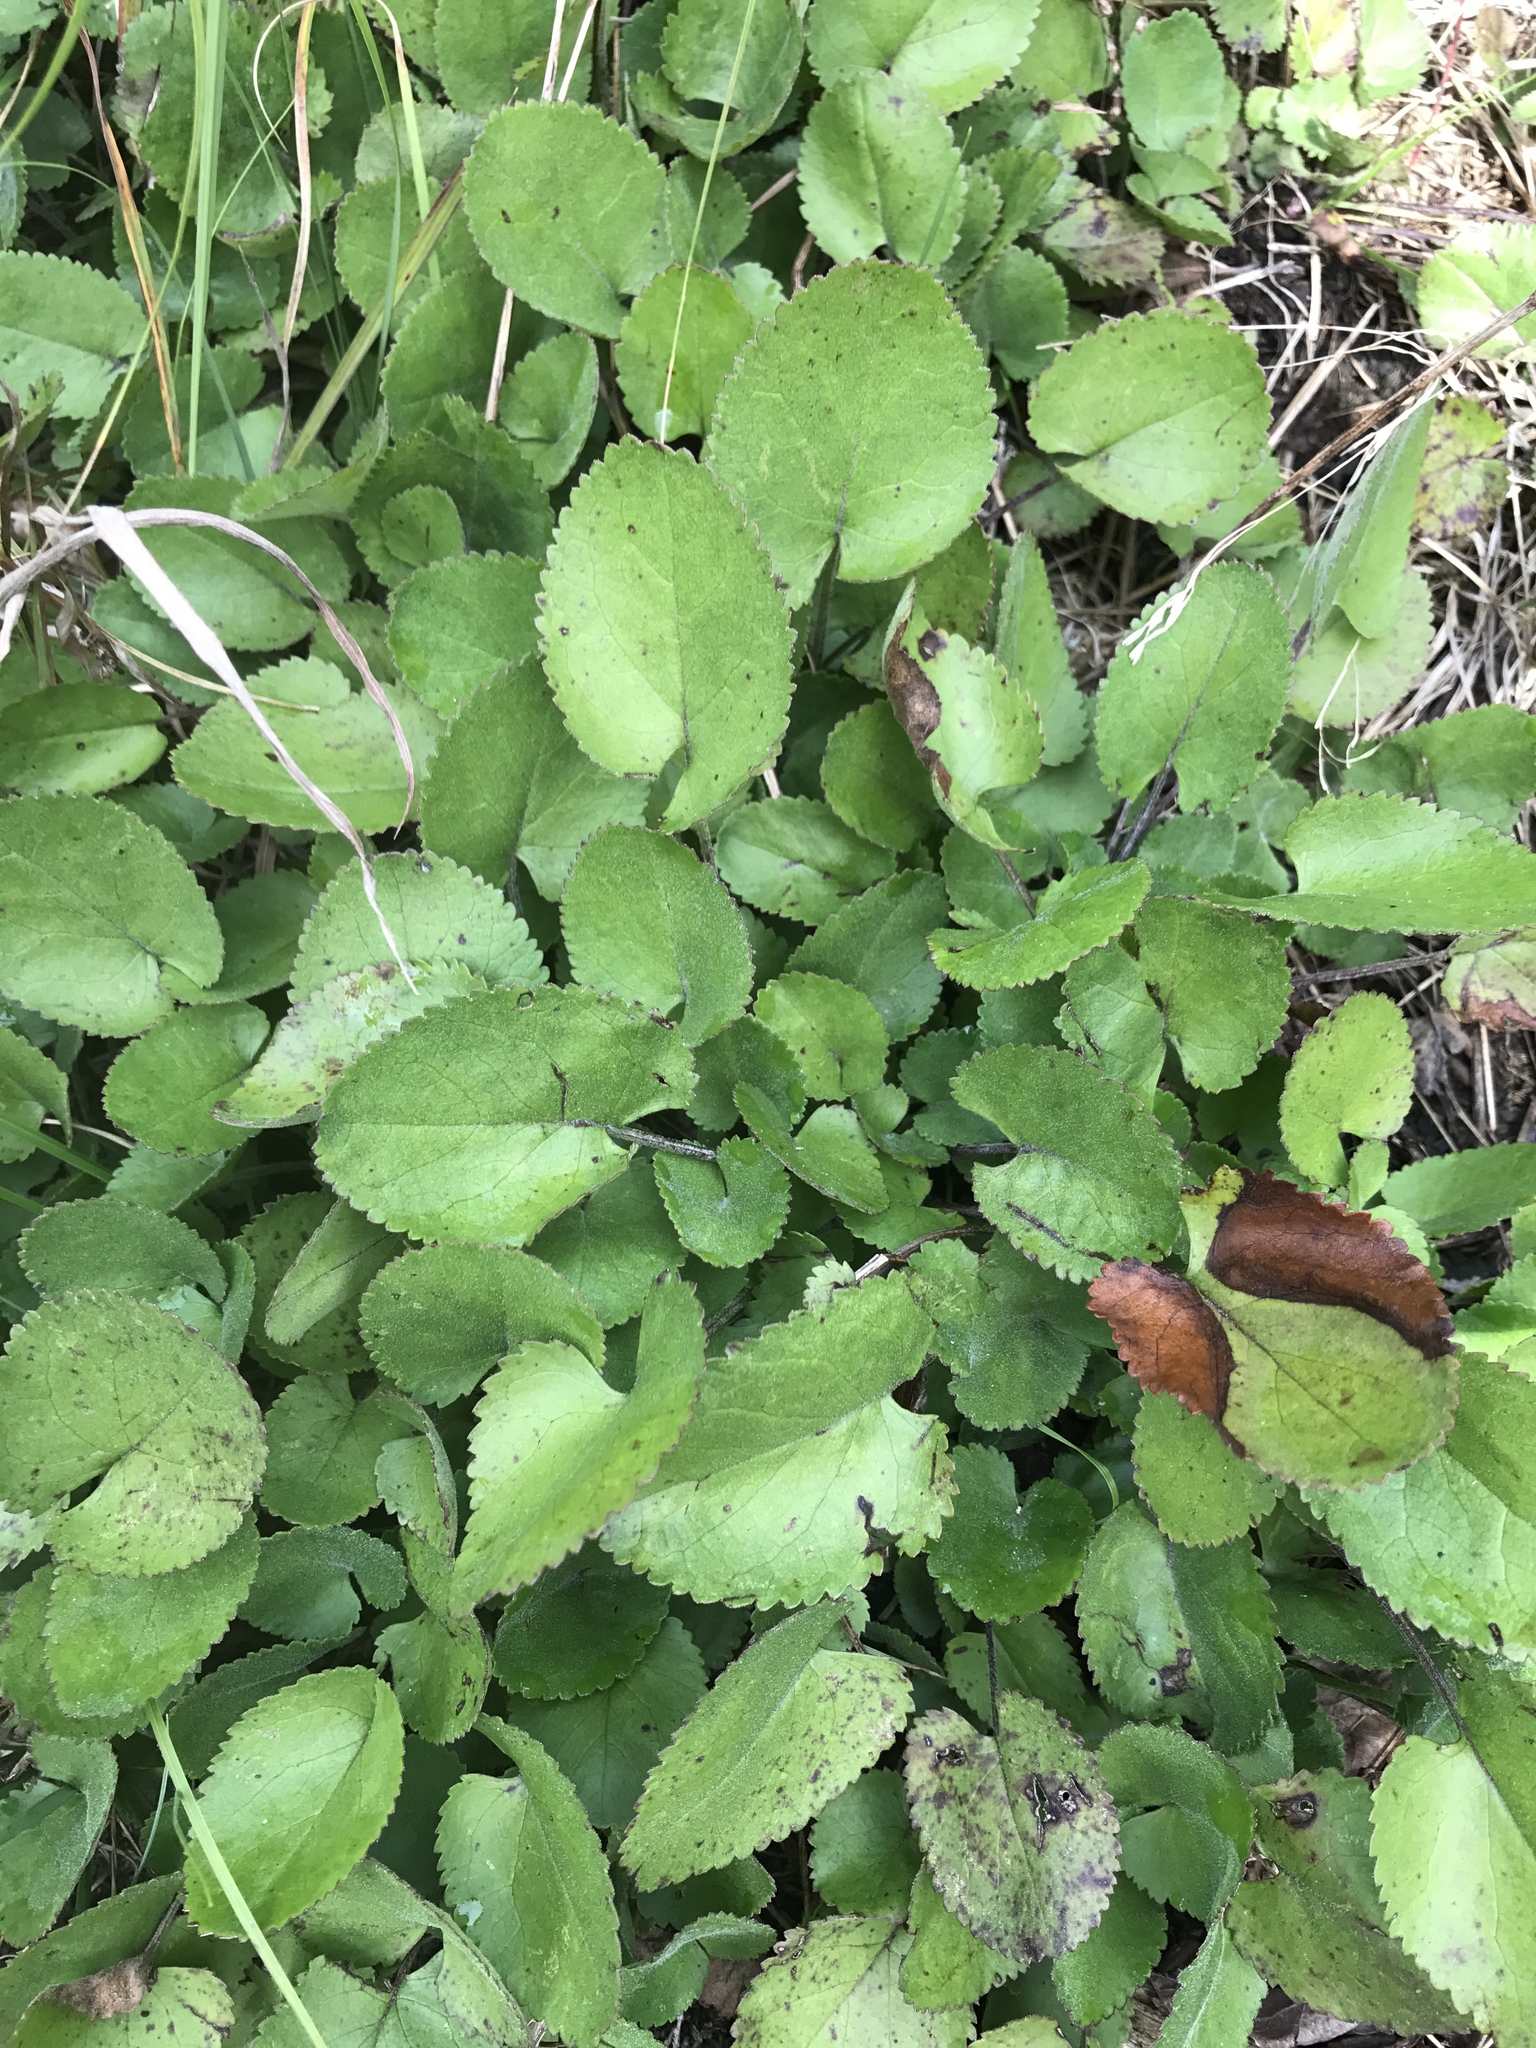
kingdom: Plantae
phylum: Tracheophyta
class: Magnoliopsida
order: Asterales
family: Asteraceae
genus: Packera
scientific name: Packera serpenticola
